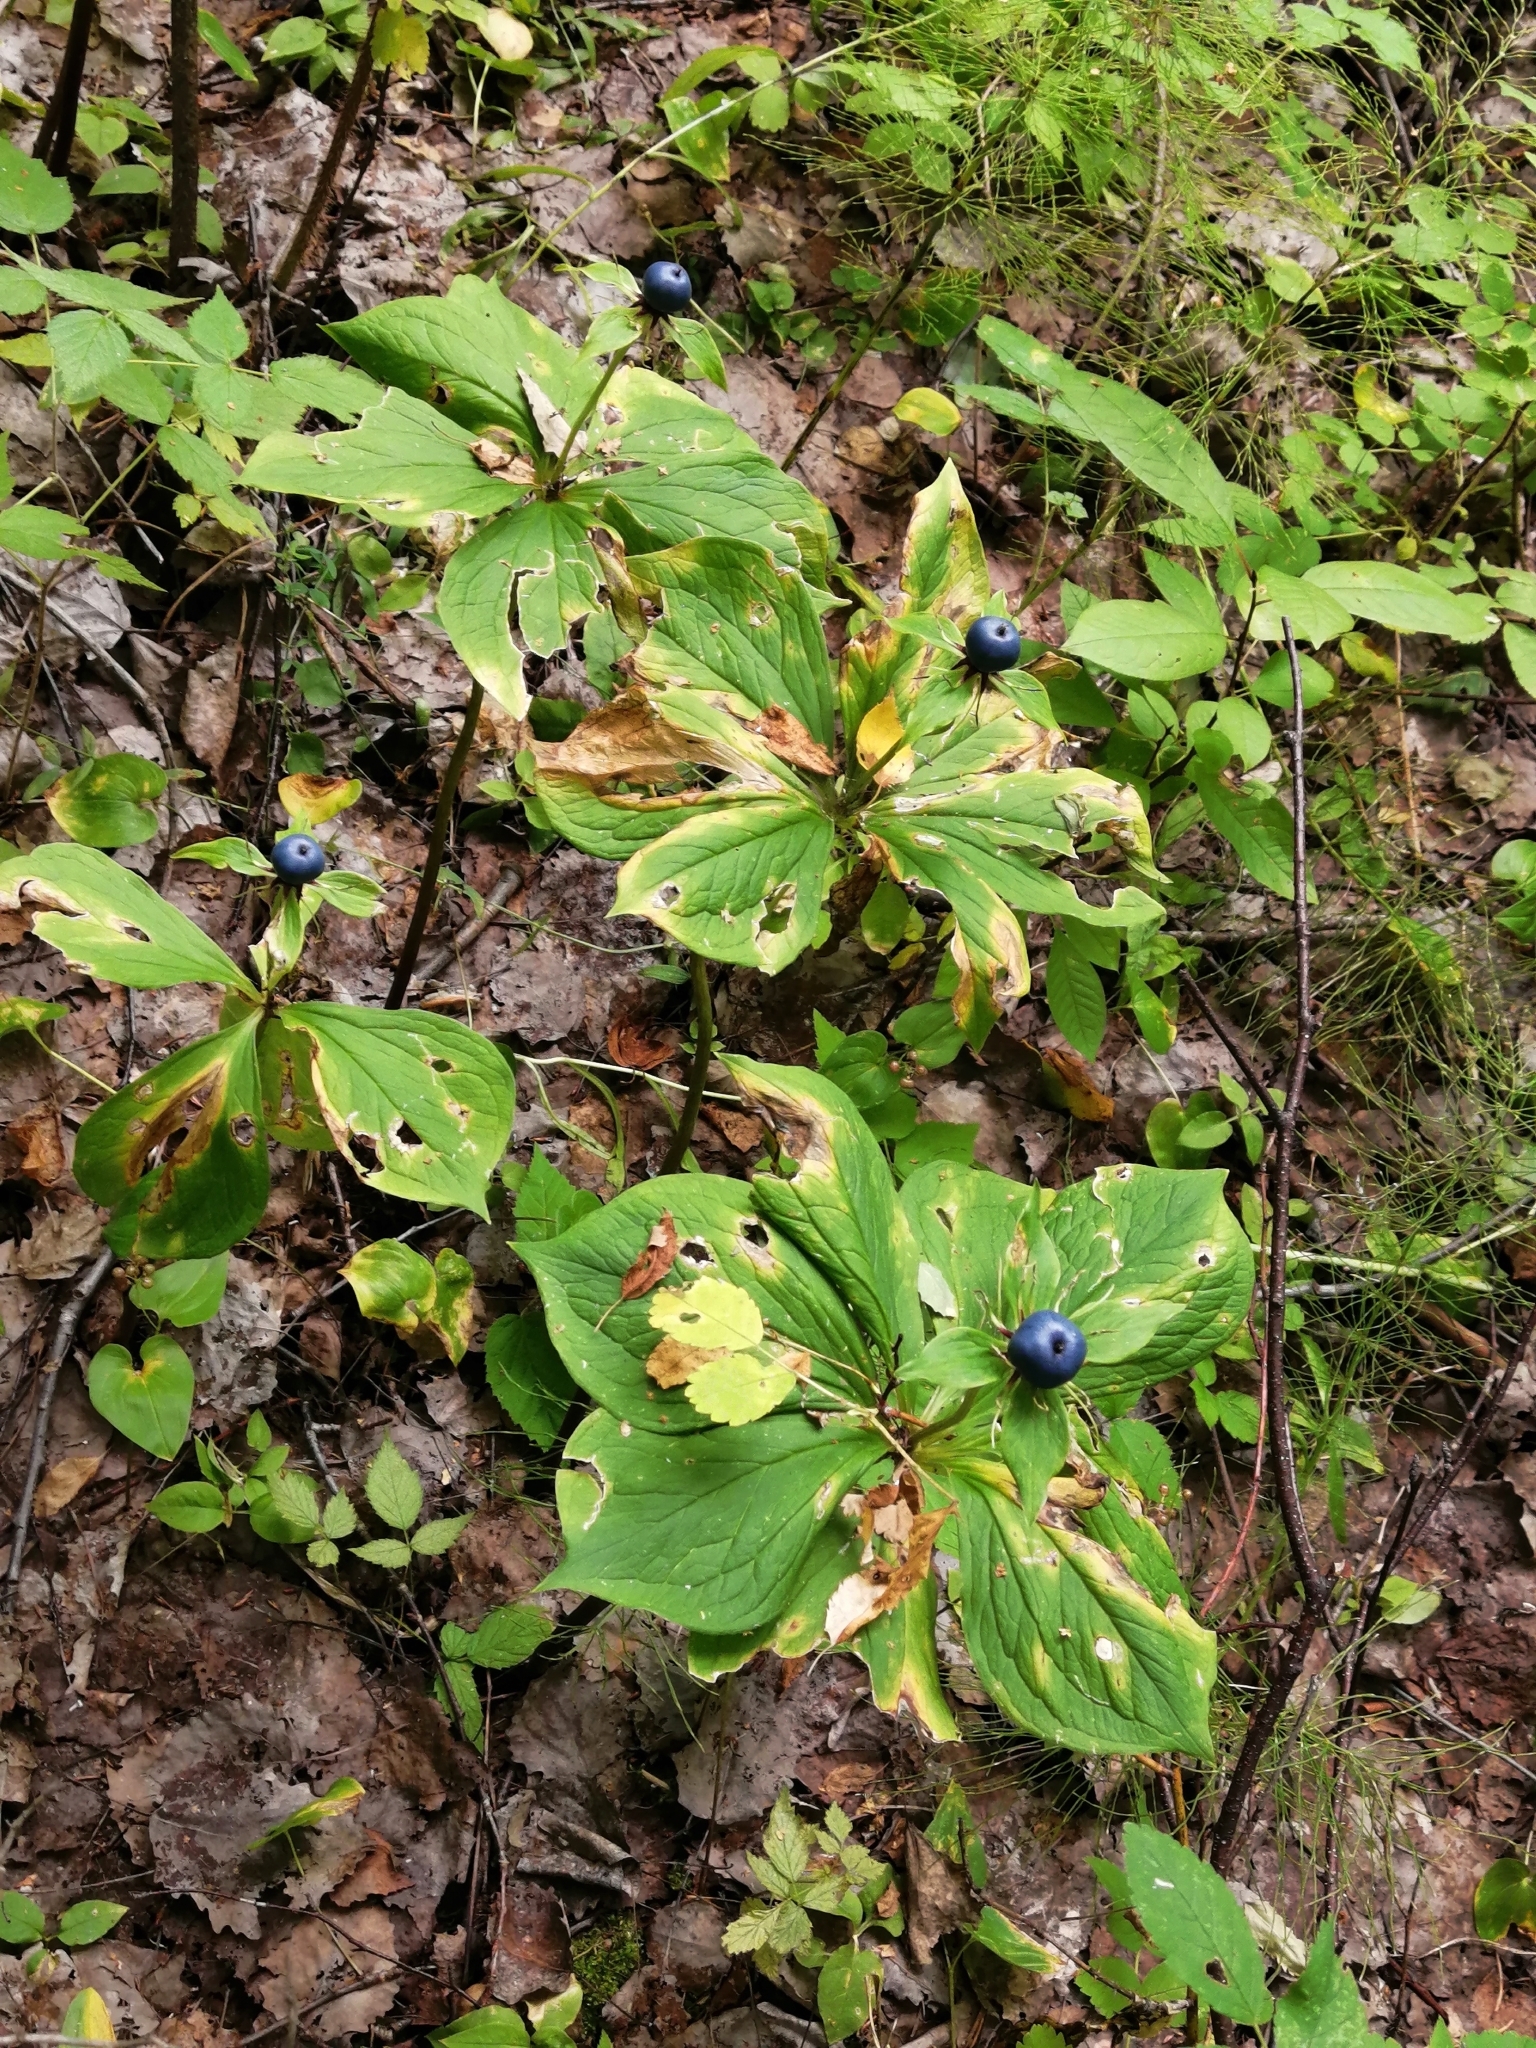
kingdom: Plantae
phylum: Tracheophyta
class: Liliopsida
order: Liliales
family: Melanthiaceae
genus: Paris
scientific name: Paris quadrifolia
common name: Herb-paris
